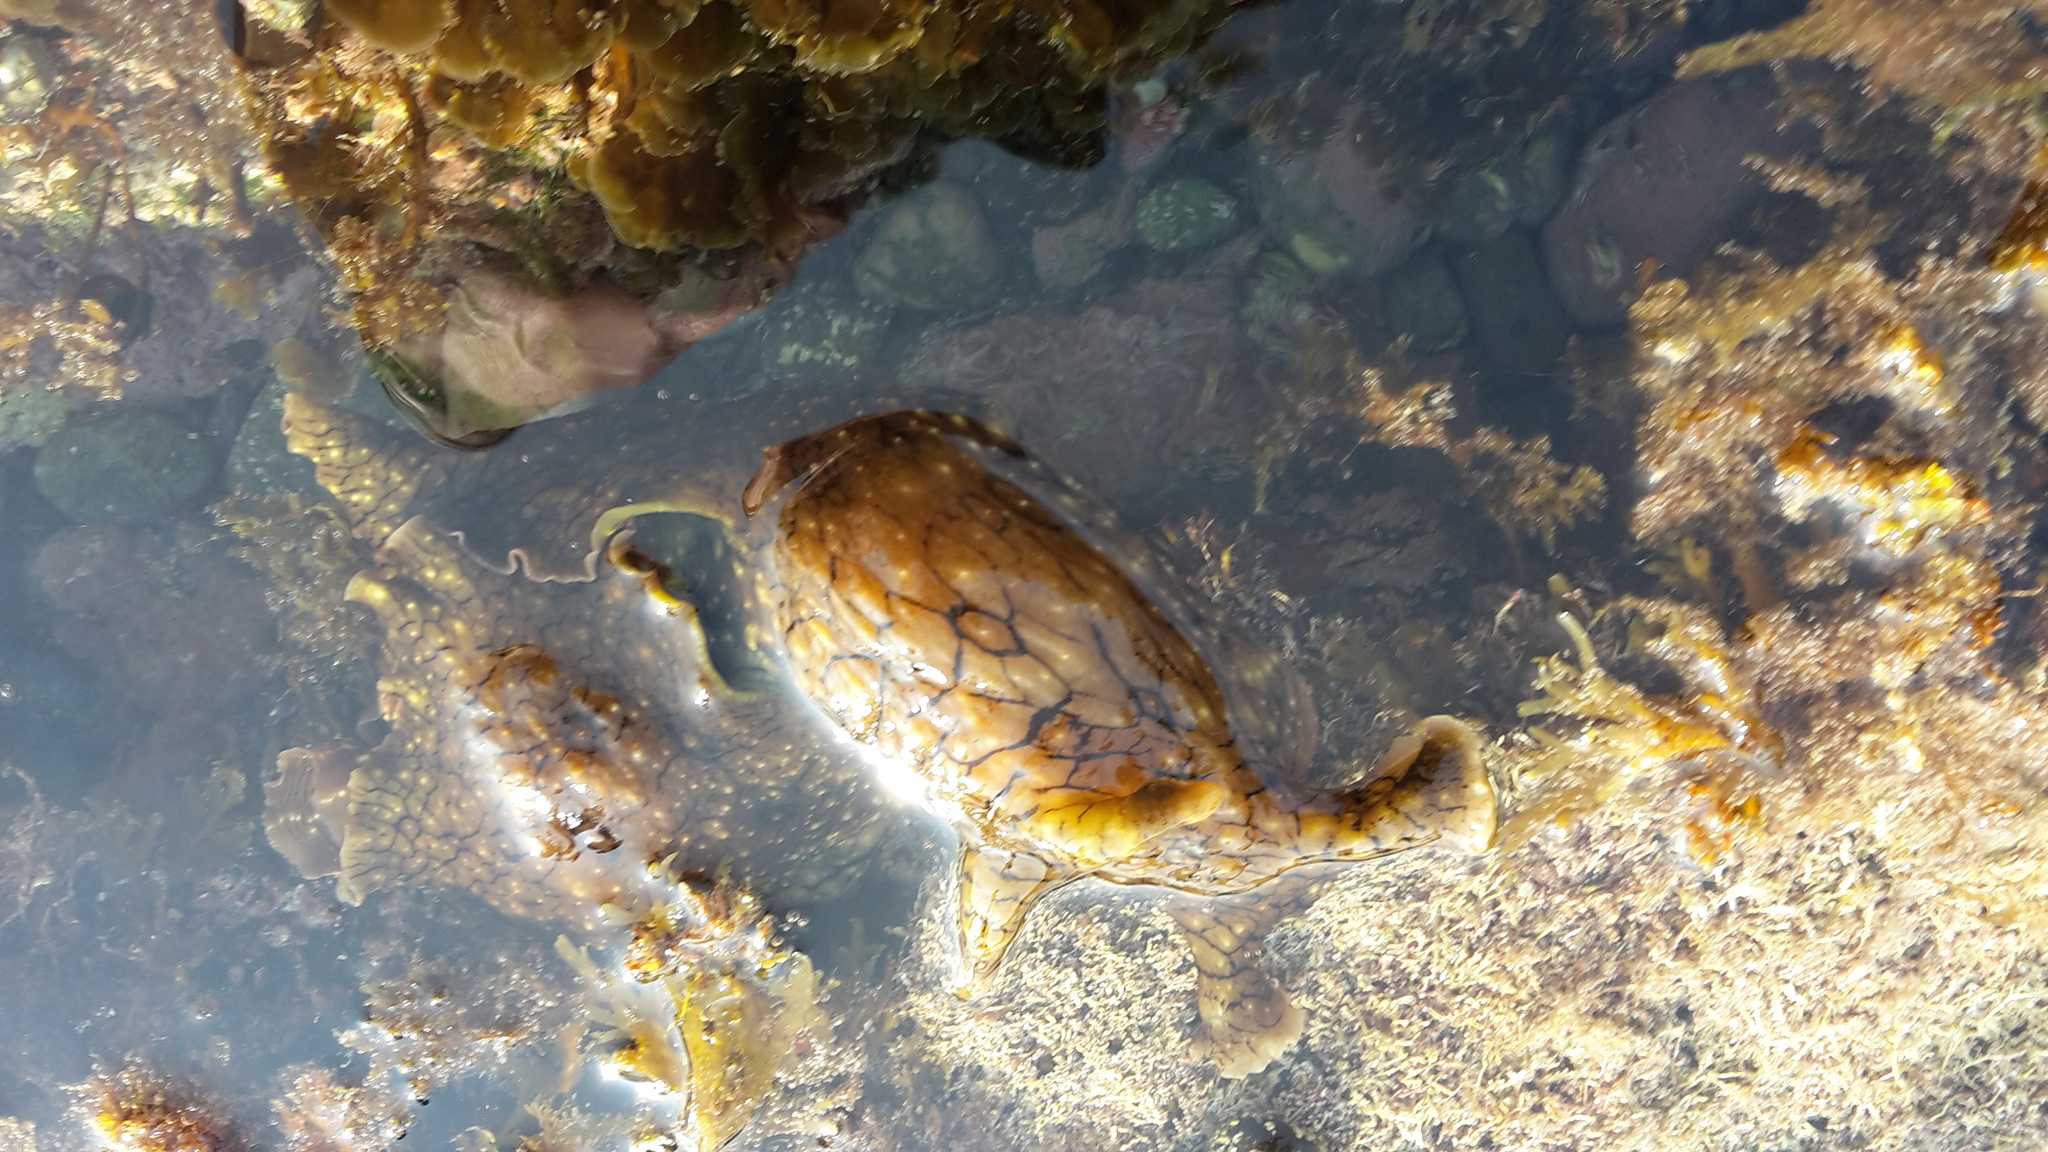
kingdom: Animalia
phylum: Mollusca
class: Gastropoda
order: Aplysiida
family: Aplysiidae
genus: Aplysia
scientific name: Aplysia argus
